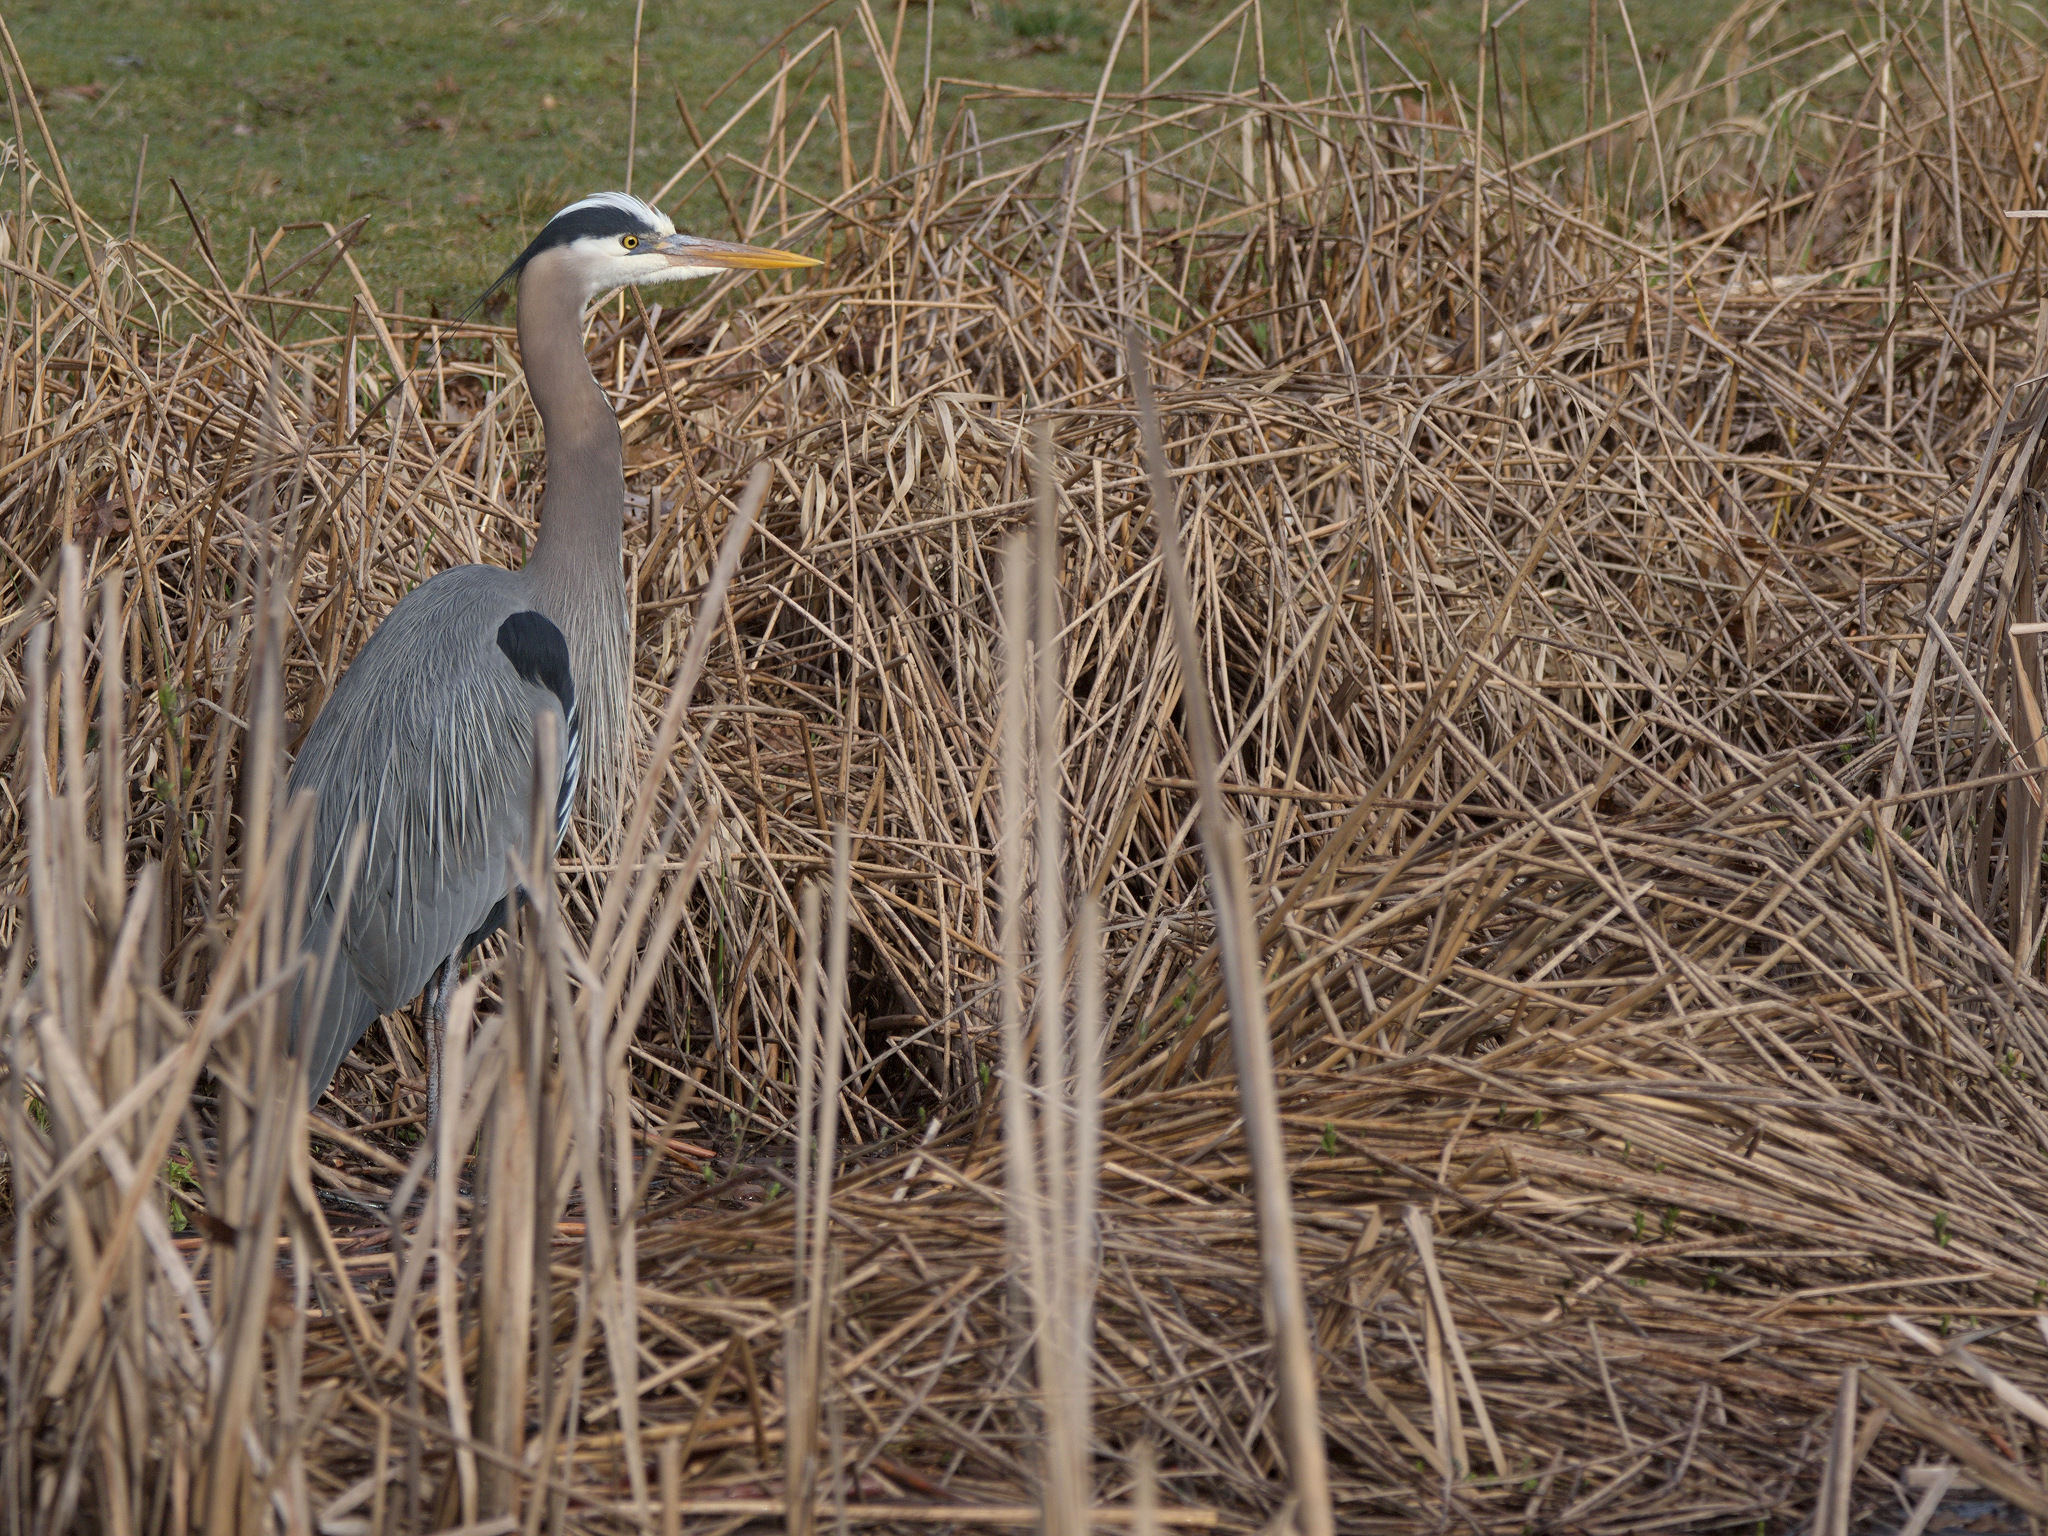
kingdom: Animalia
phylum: Chordata
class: Aves
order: Pelecaniformes
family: Ardeidae
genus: Ardea
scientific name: Ardea herodias
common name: Great blue heron
